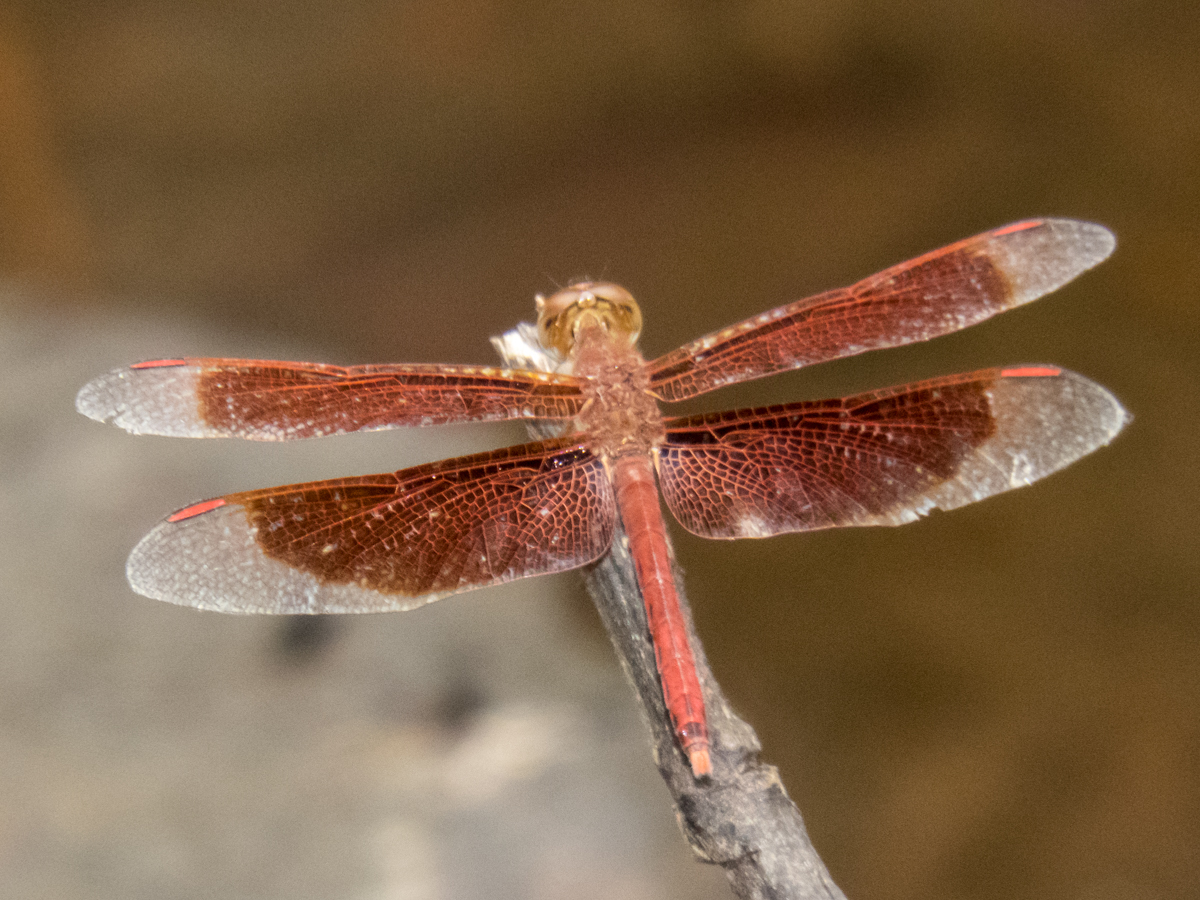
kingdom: Animalia
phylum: Arthropoda
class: Insecta
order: Odonata
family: Libellulidae
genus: Neurothemis
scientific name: Neurothemis fluctuans
